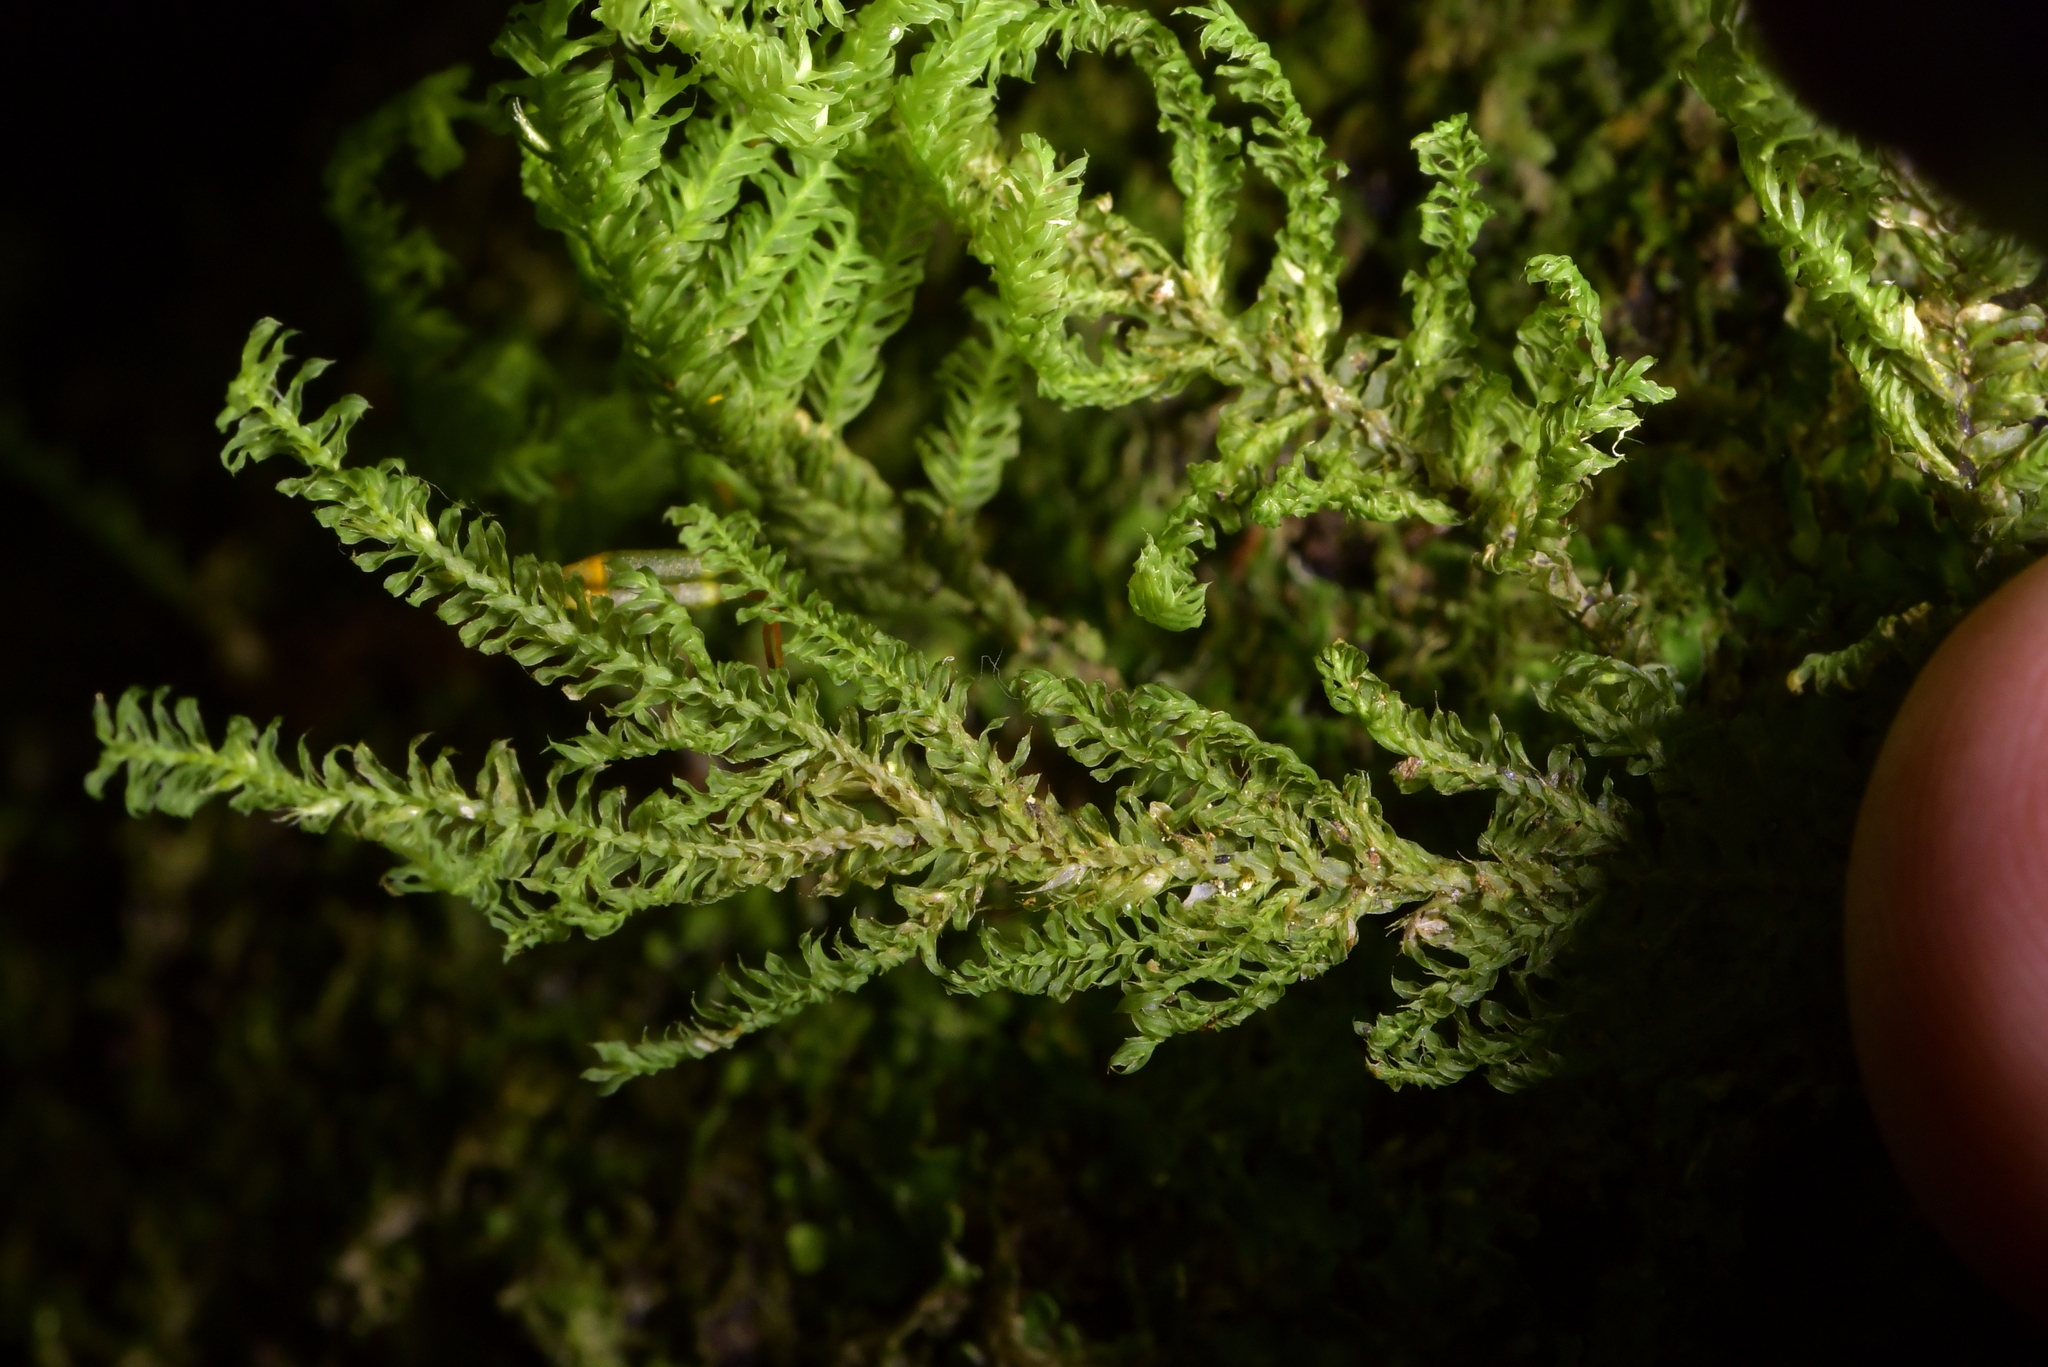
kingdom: Plantae
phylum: Bryophyta
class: Bryopsida
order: Hypopterygiales
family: Hypopterygiaceae
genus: Lopidium
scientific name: Lopidium concinnum
